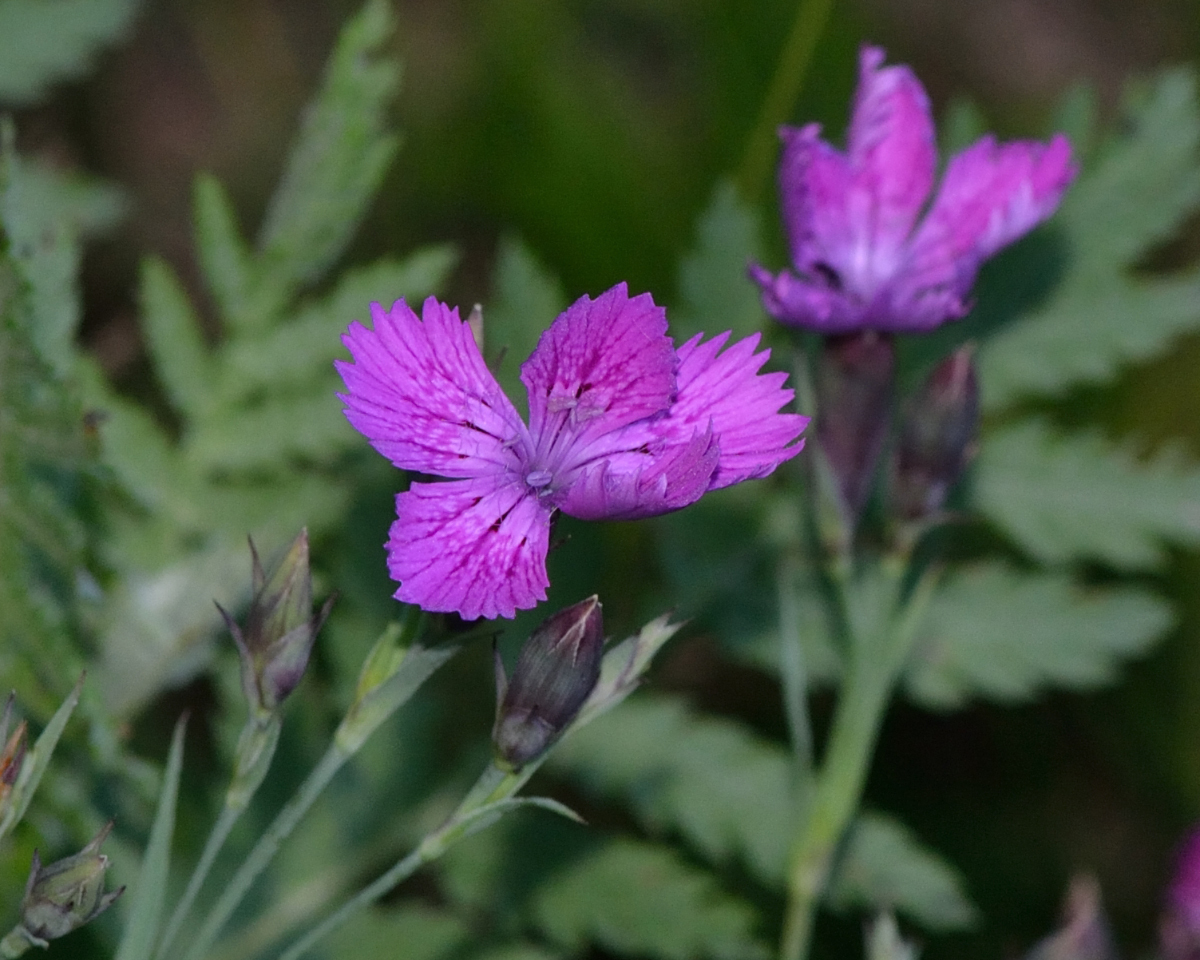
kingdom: Plantae
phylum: Tracheophyta
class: Magnoliopsida
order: Caryophyllales
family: Caryophyllaceae
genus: Dianthus
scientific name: Dianthus chinensis
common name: Rainbow pink
